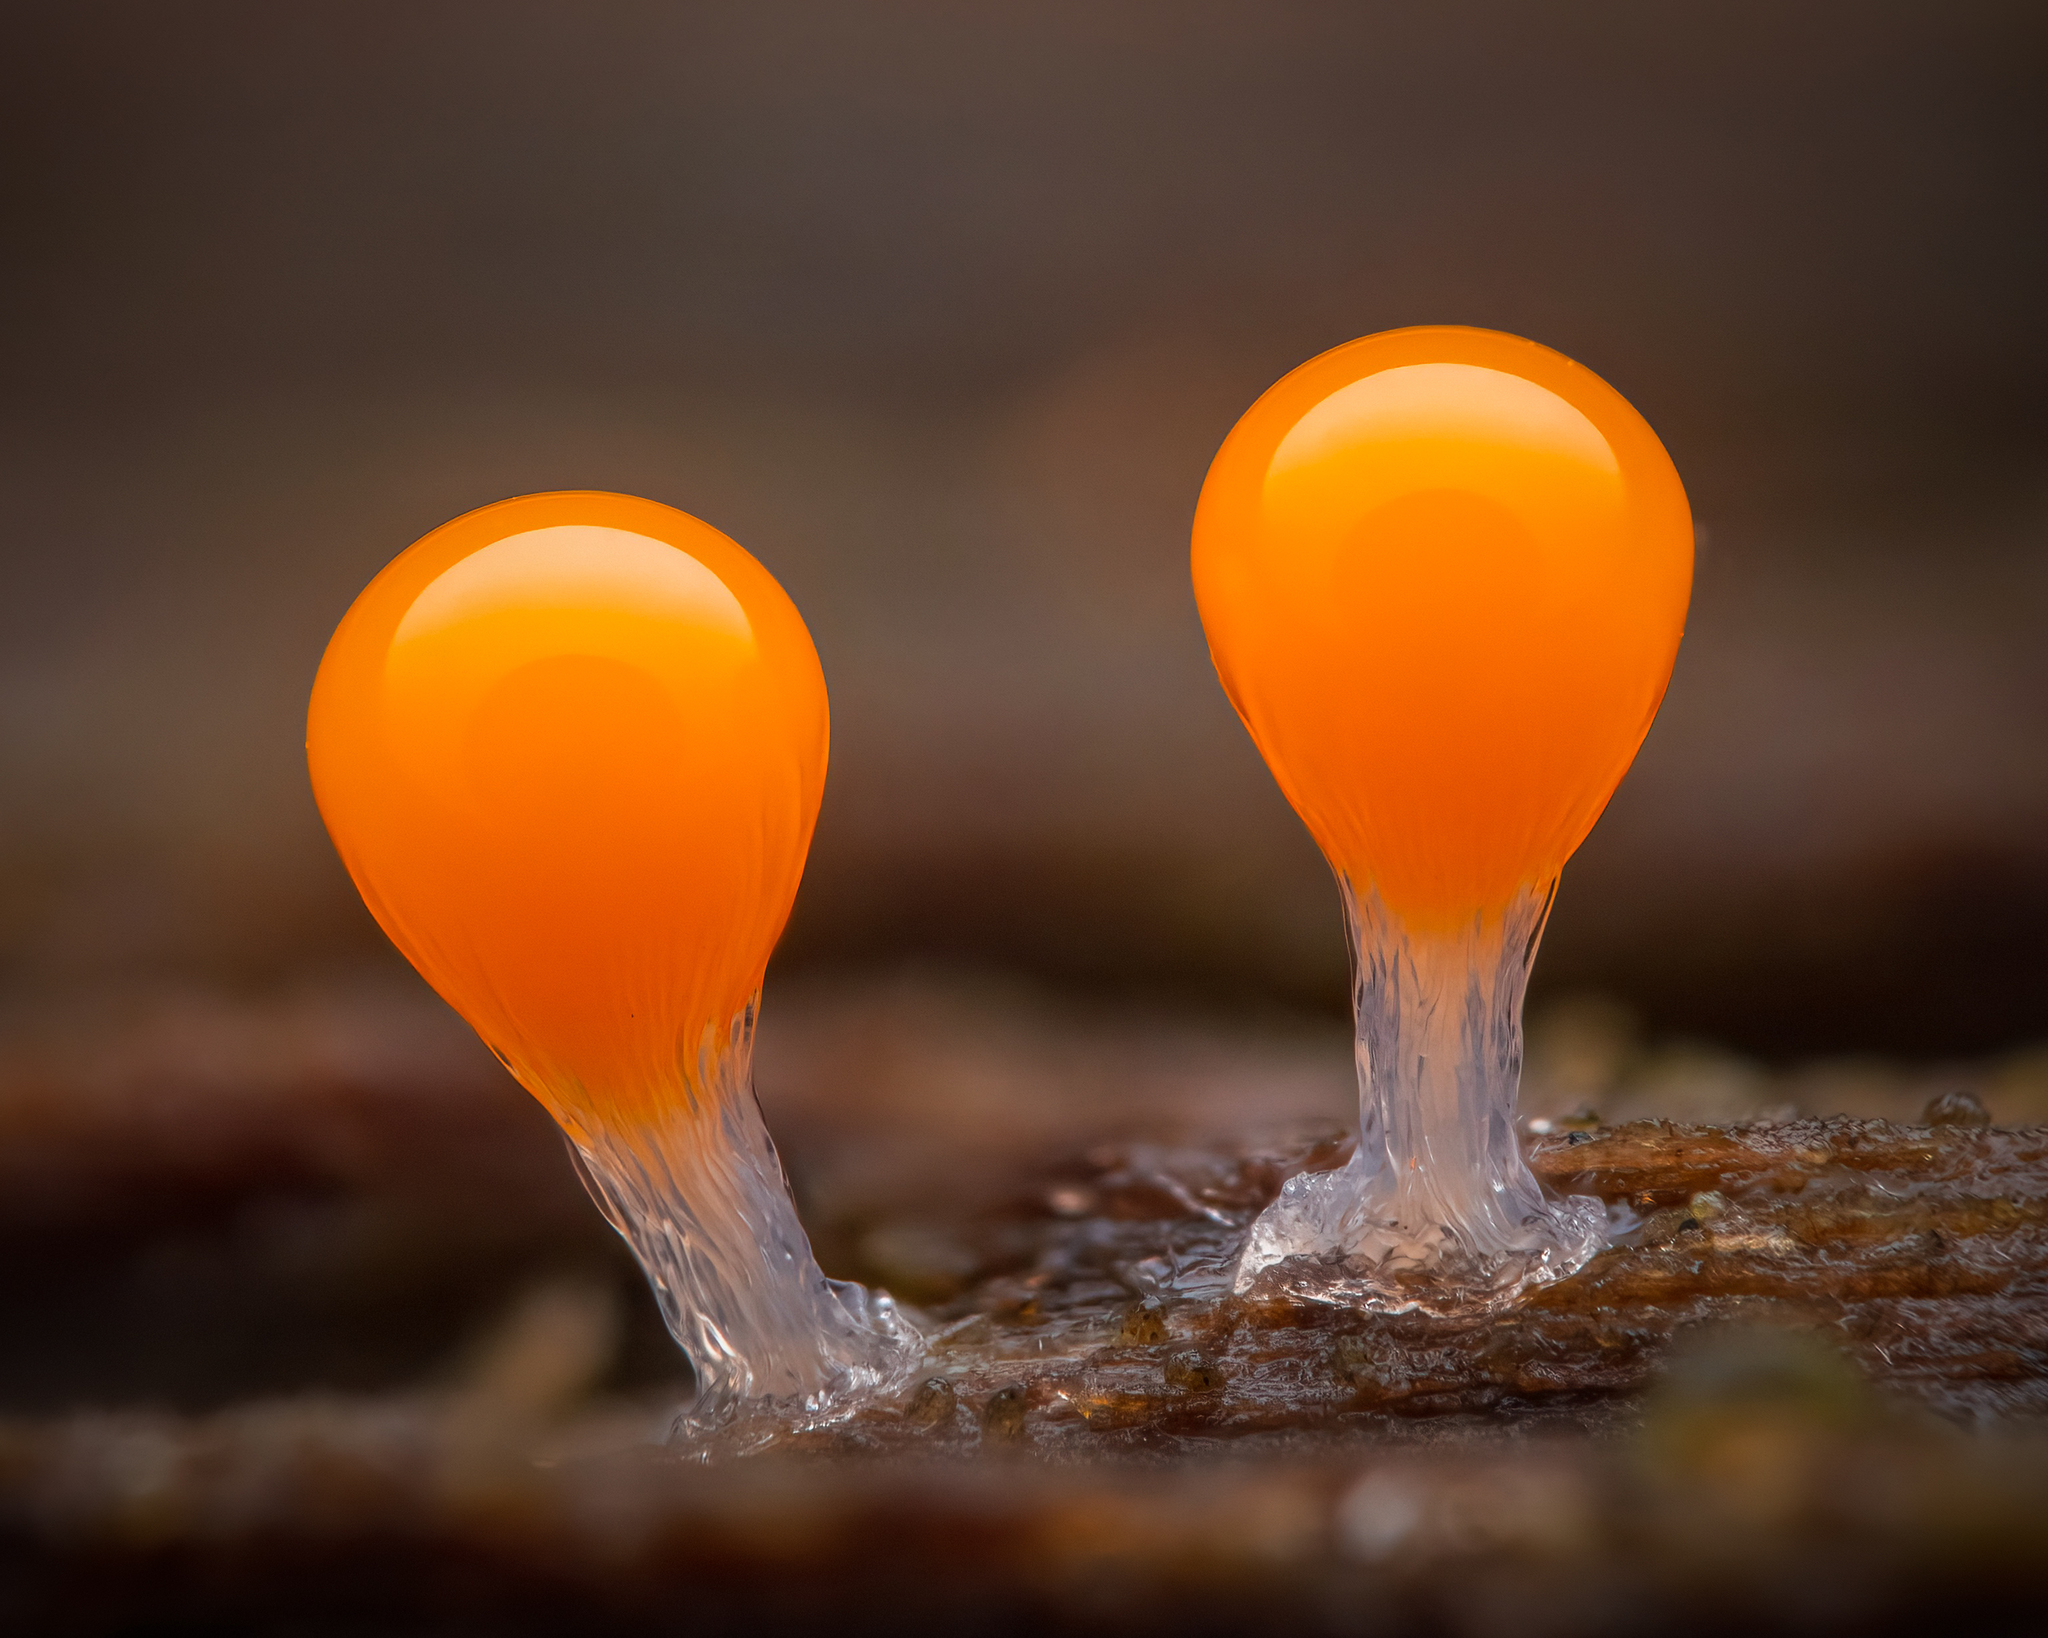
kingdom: Protozoa
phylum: Mycetozoa
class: Myxomycetes
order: Trichiales
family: Arcyriaceae
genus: Hemitrichia
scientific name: Hemitrichia decipiens
